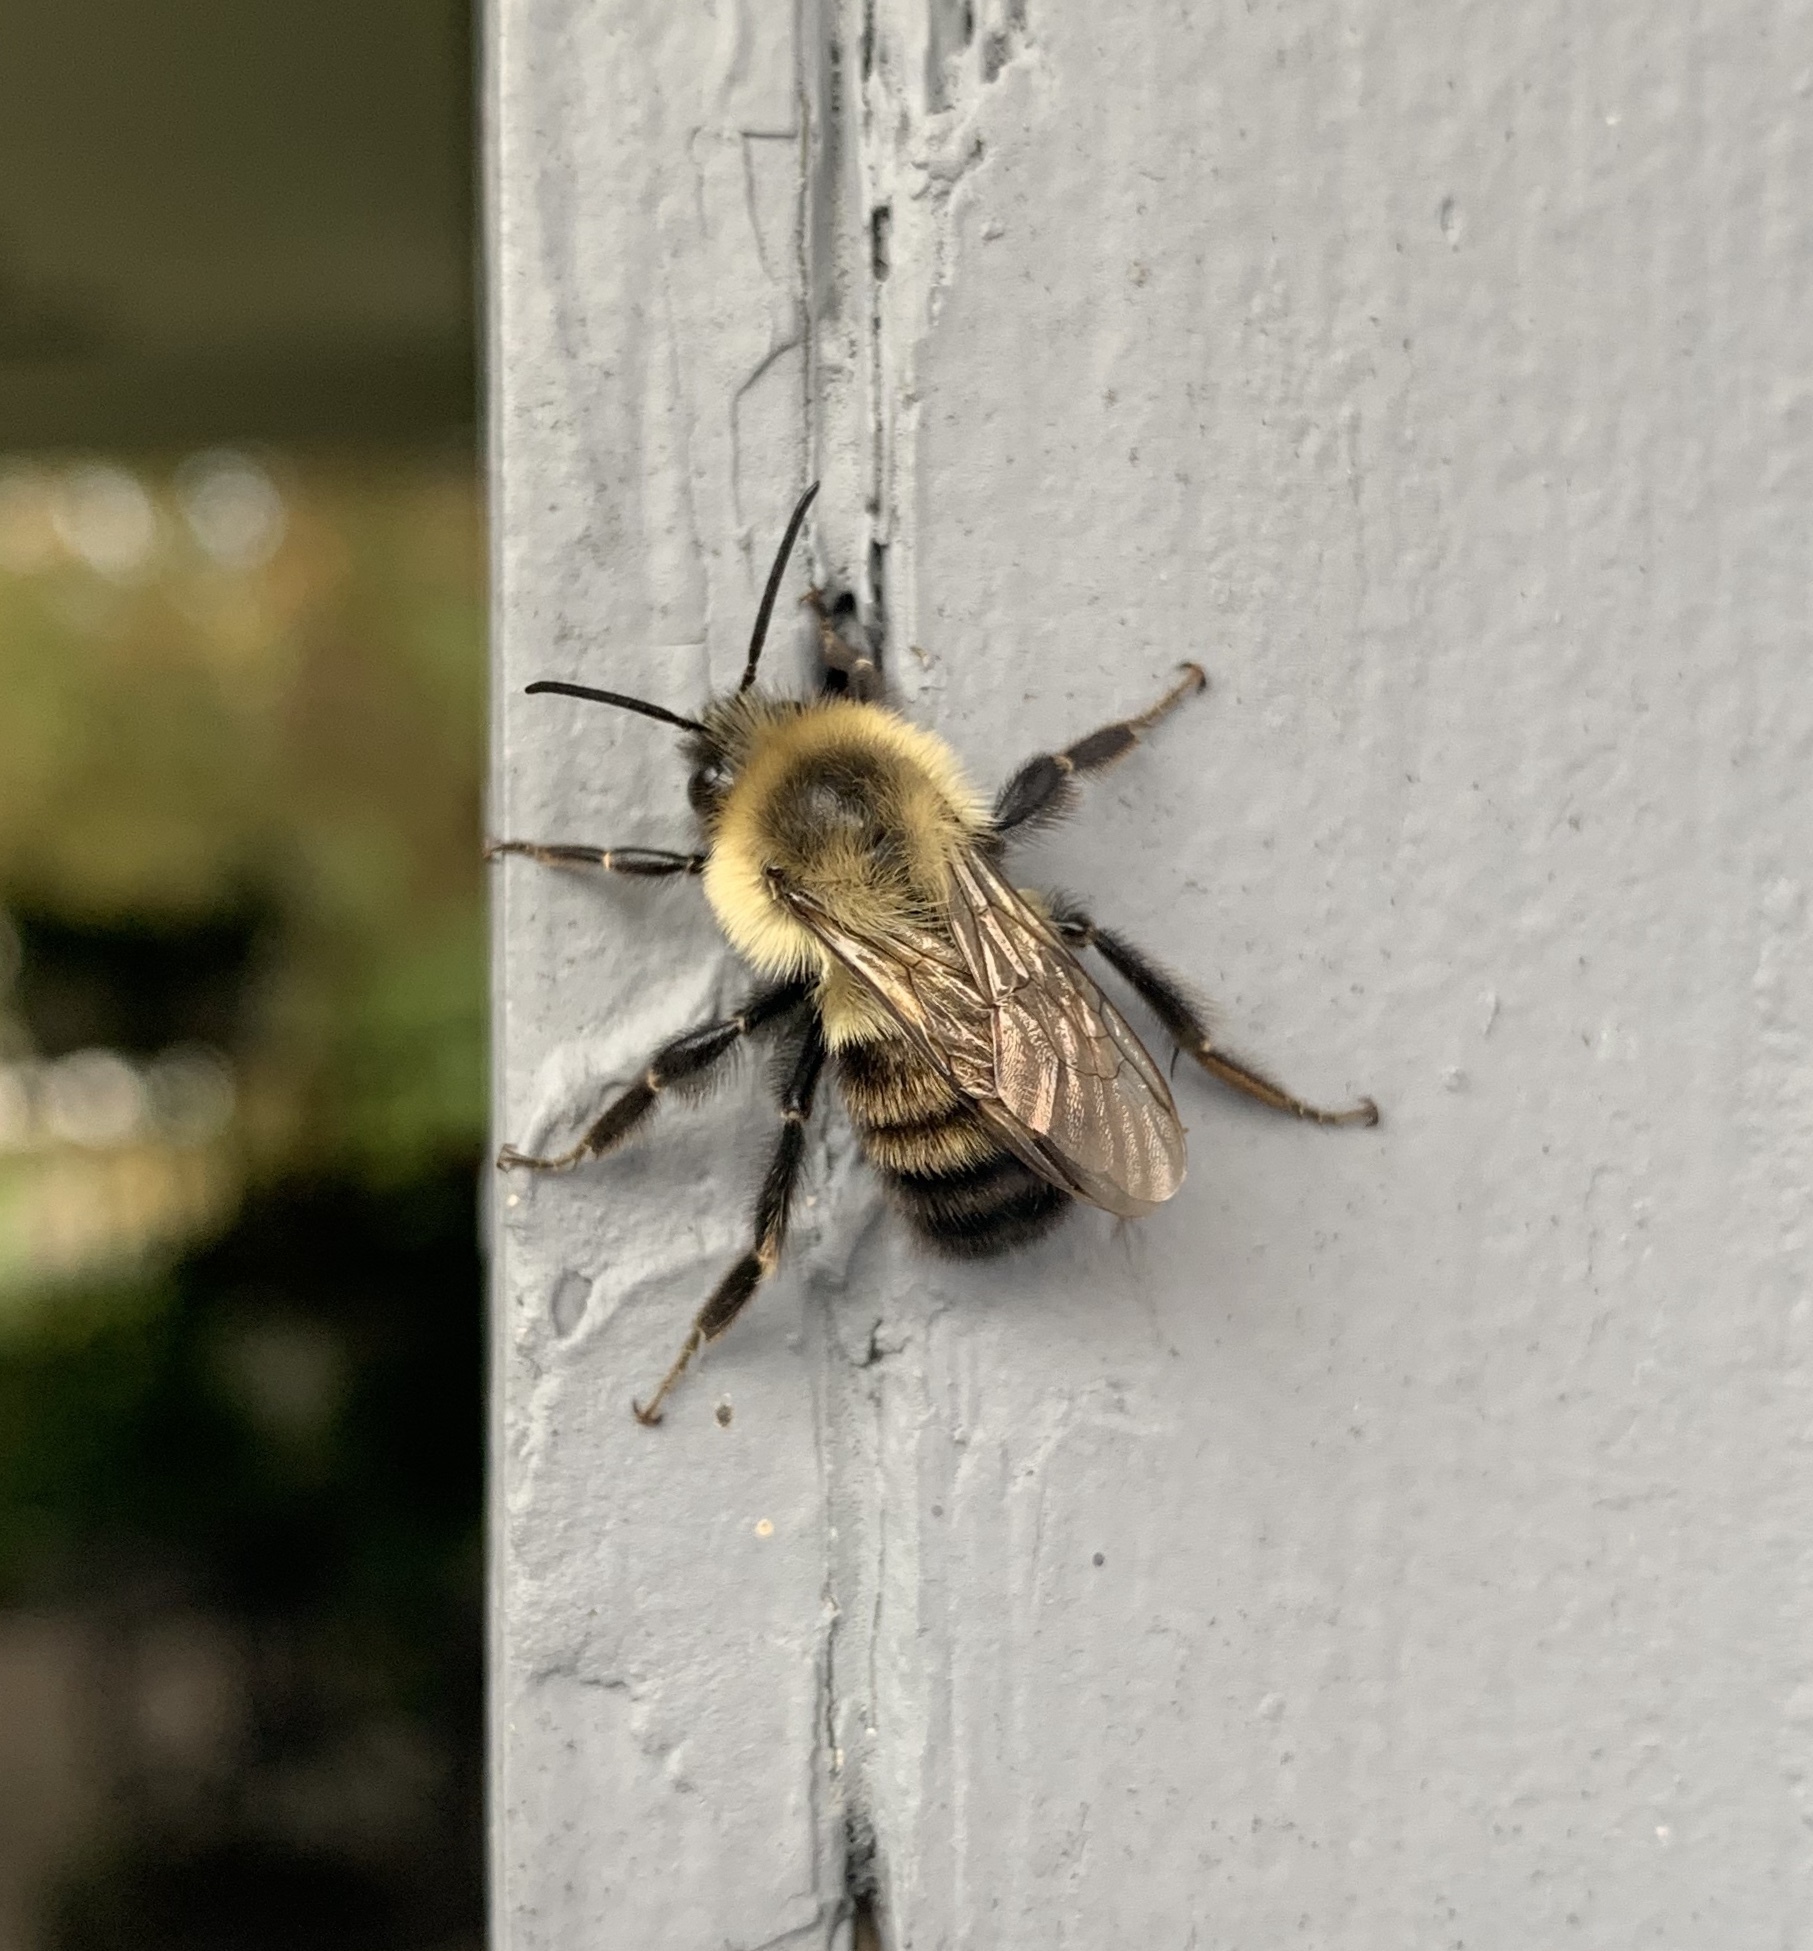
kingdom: Animalia
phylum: Arthropoda
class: Insecta
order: Hymenoptera
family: Apidae
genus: Bombus
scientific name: Bombus impatiens
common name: Common eastern bumble bee
